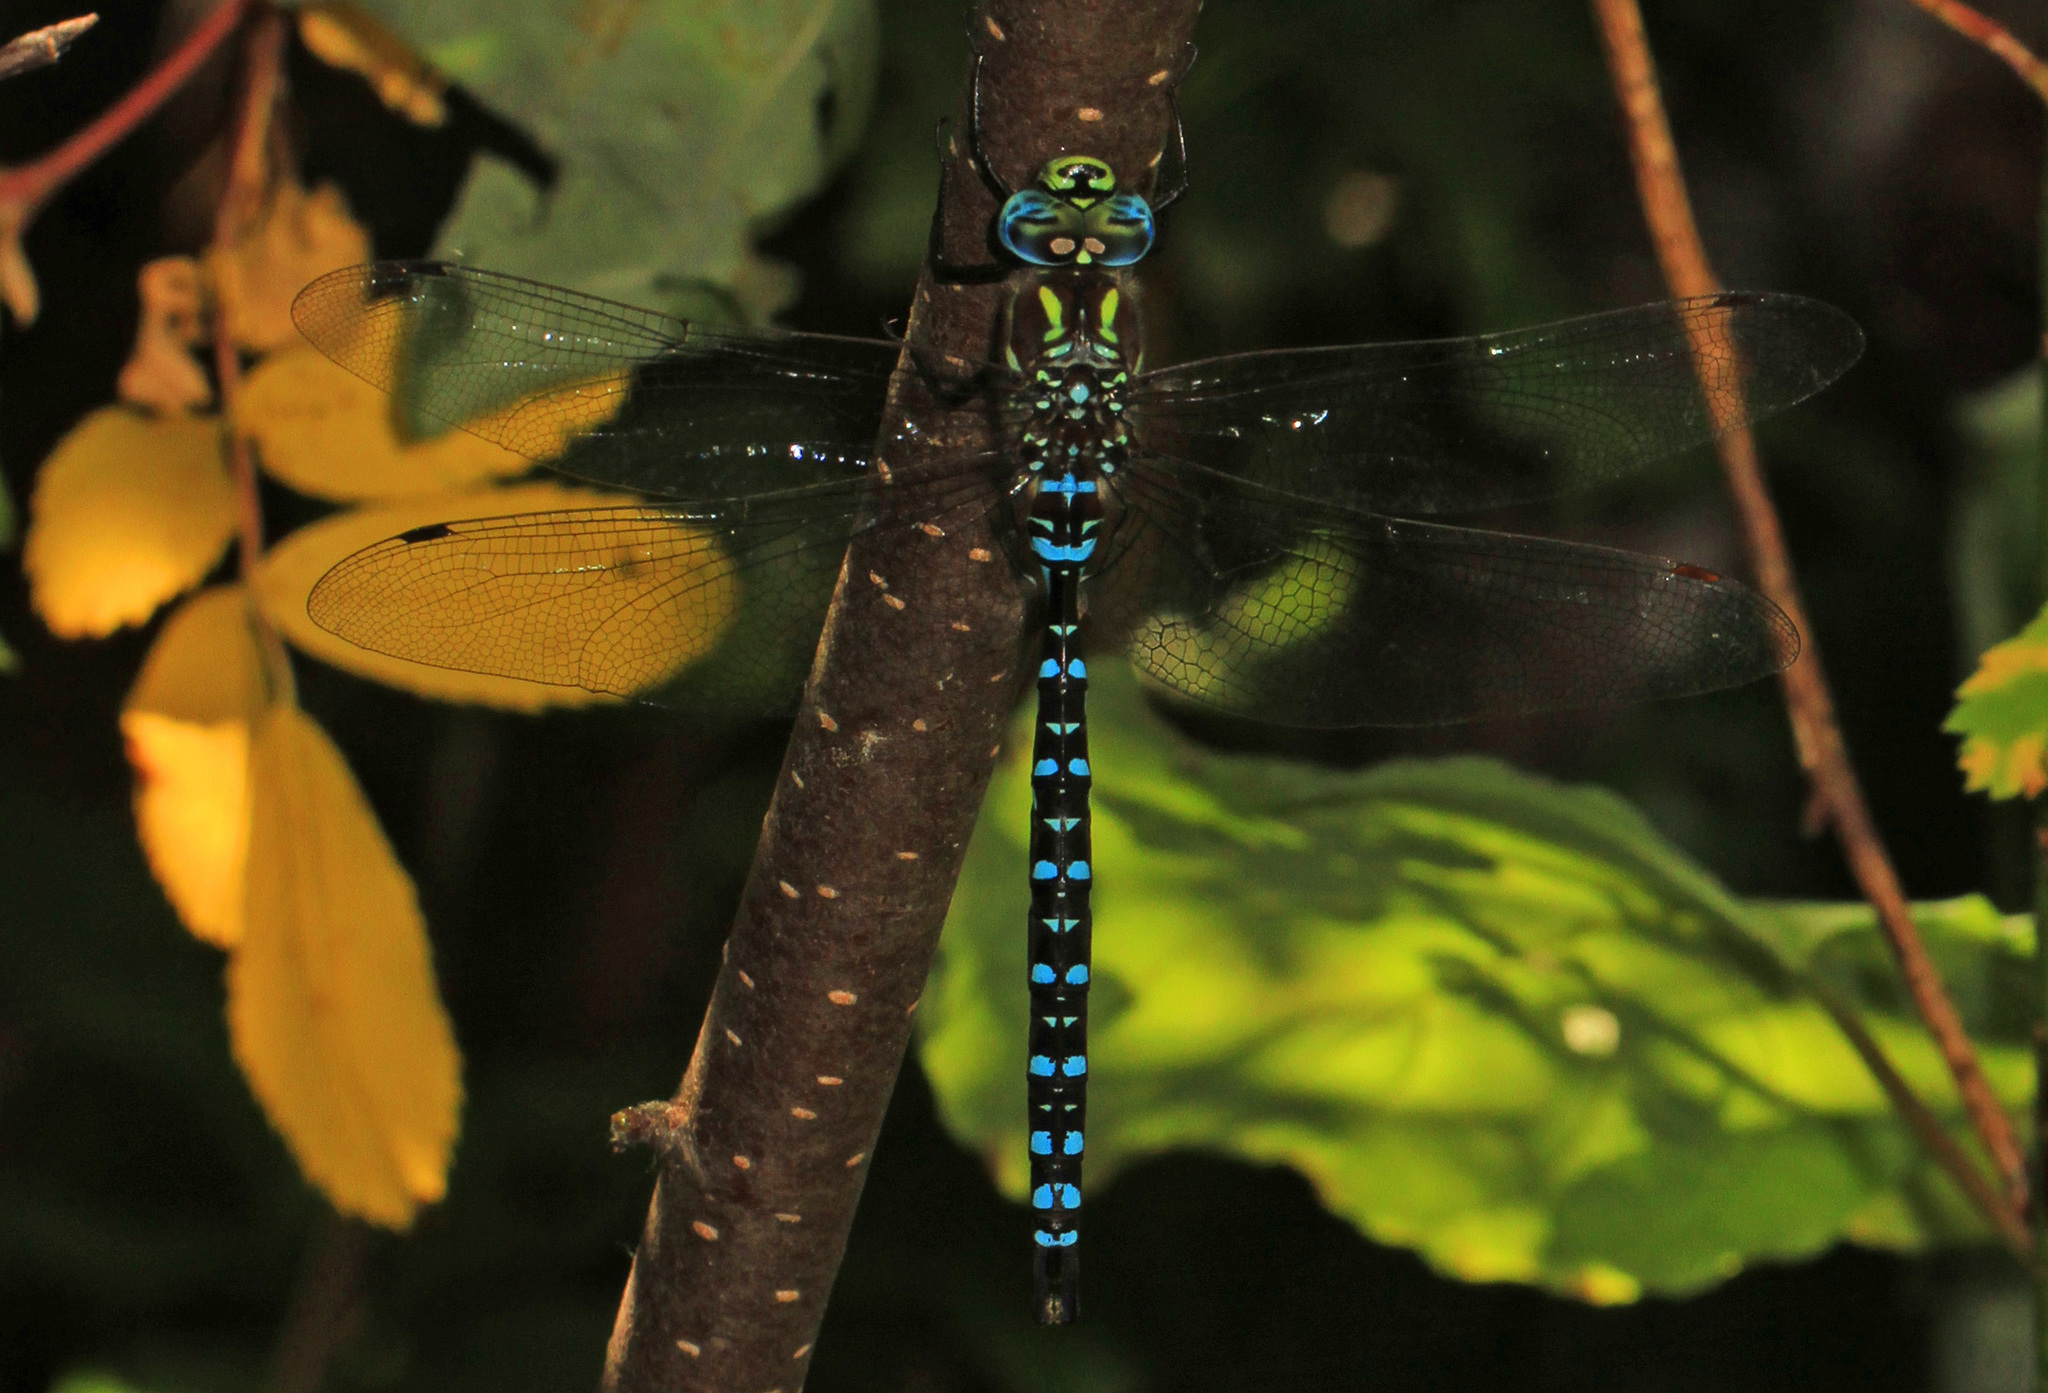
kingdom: Animalia
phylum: Arthropoda
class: Insecta
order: Odonata
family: Aeshnidae
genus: Aeshna
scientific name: Aeshna palmata
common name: Paddle-tailed darner
